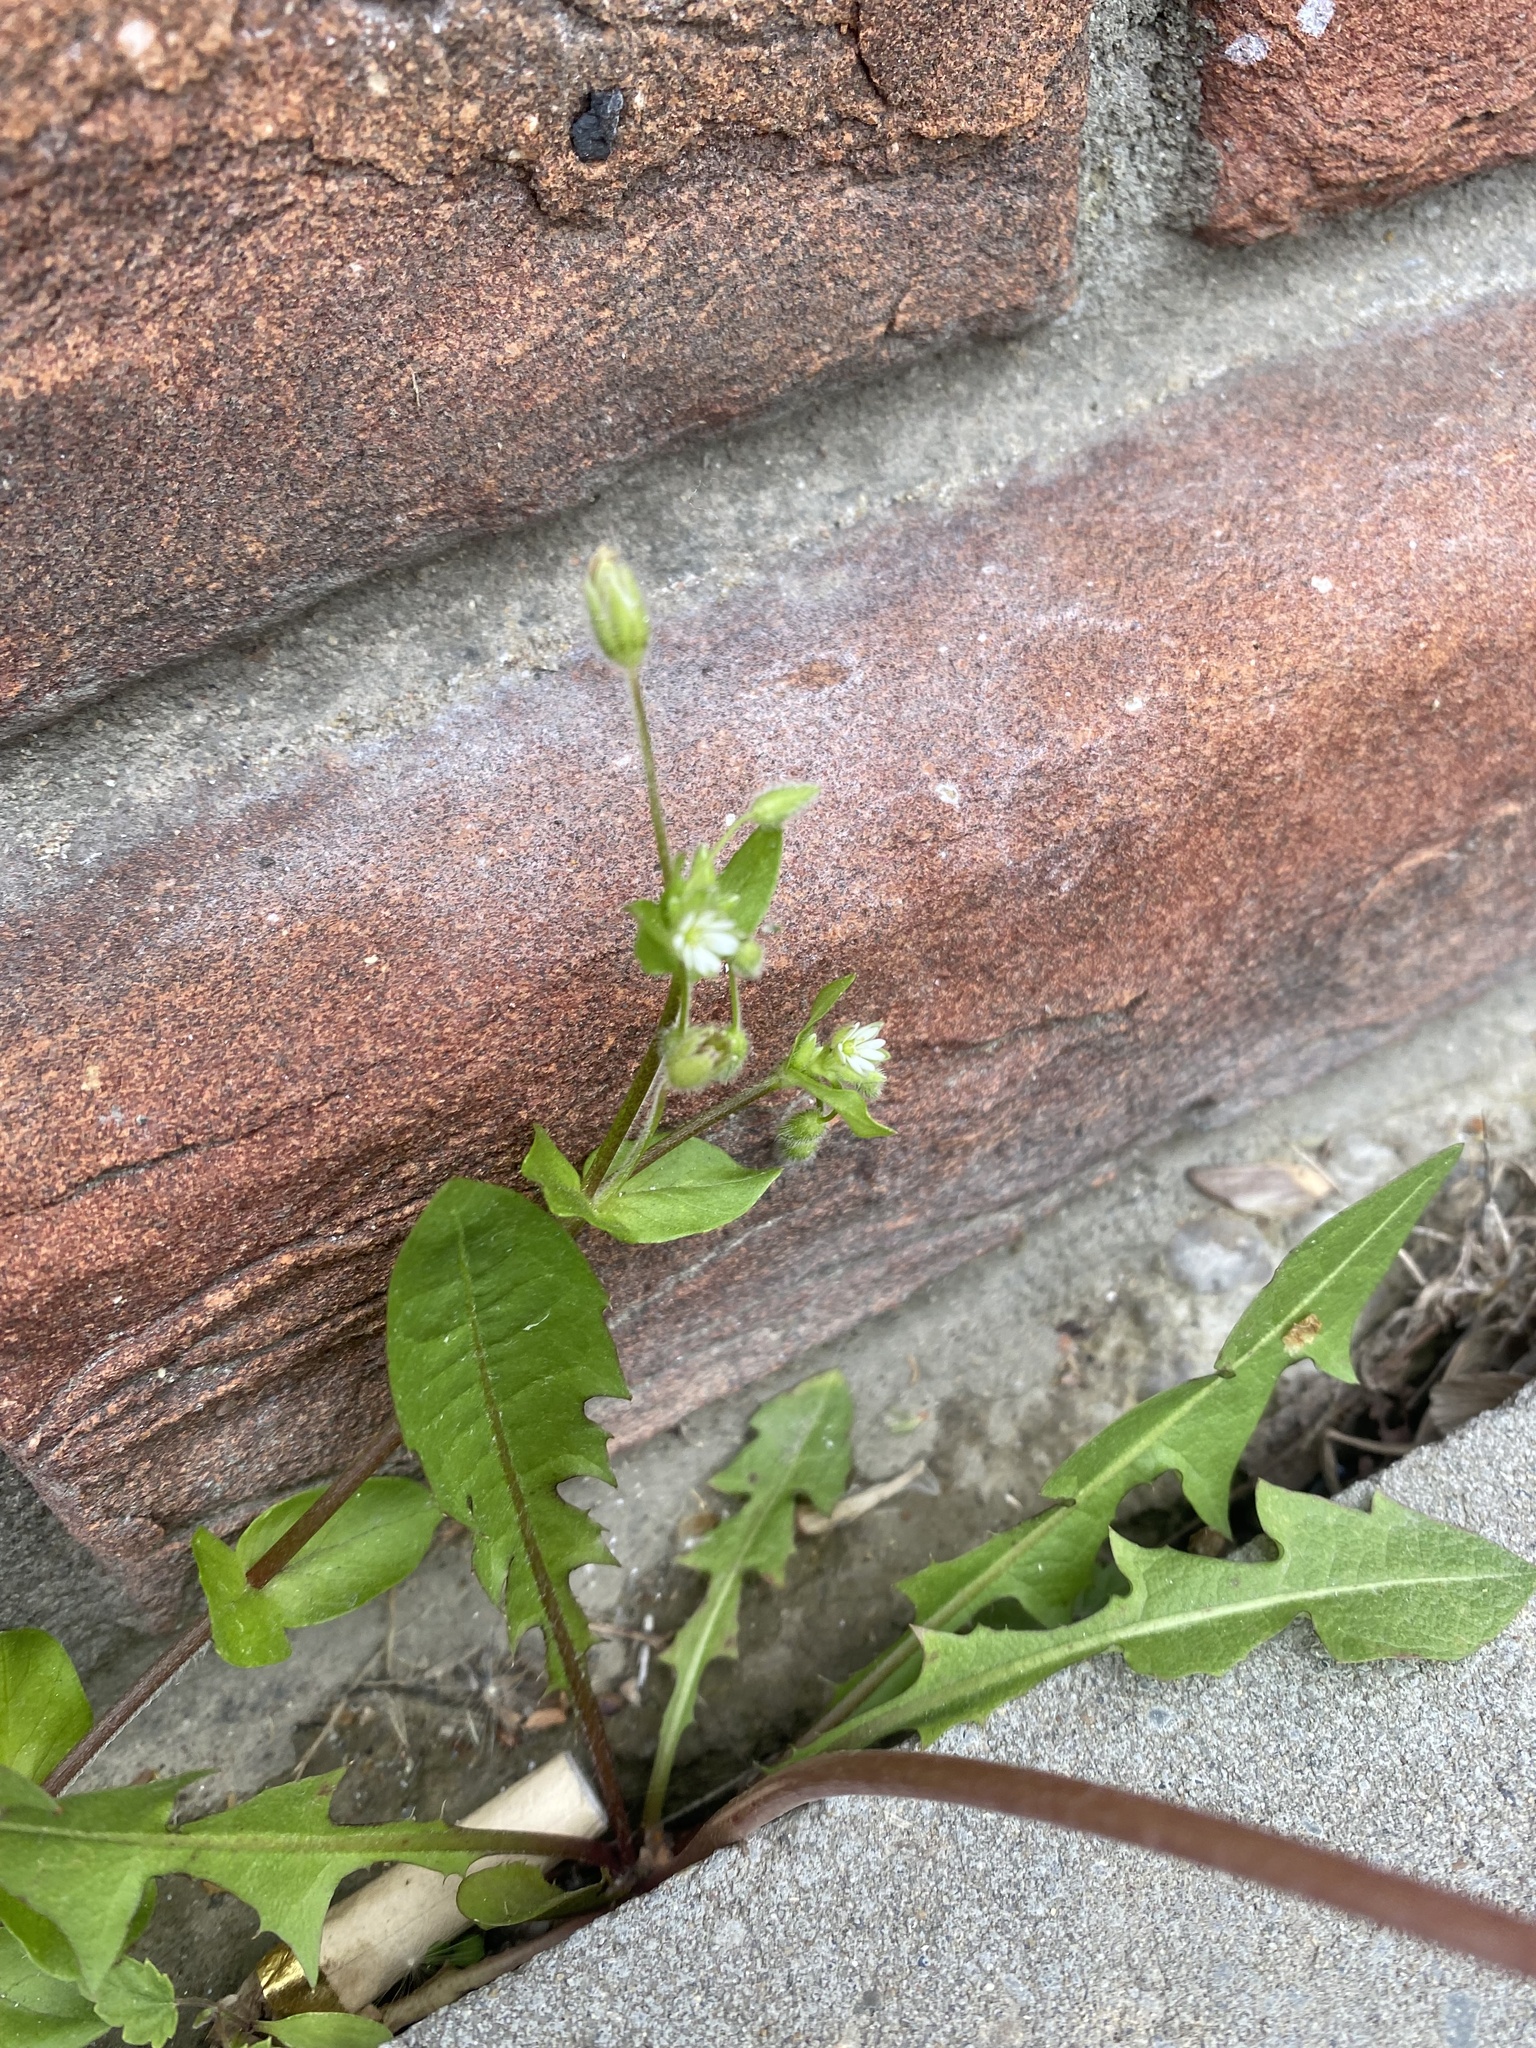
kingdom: Plantae
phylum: Tracheophyta
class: Magnoliopsida
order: Caryophyllales
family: Caryophyllaceae
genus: Stellaria
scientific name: Stellaria media
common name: Common chickweed
